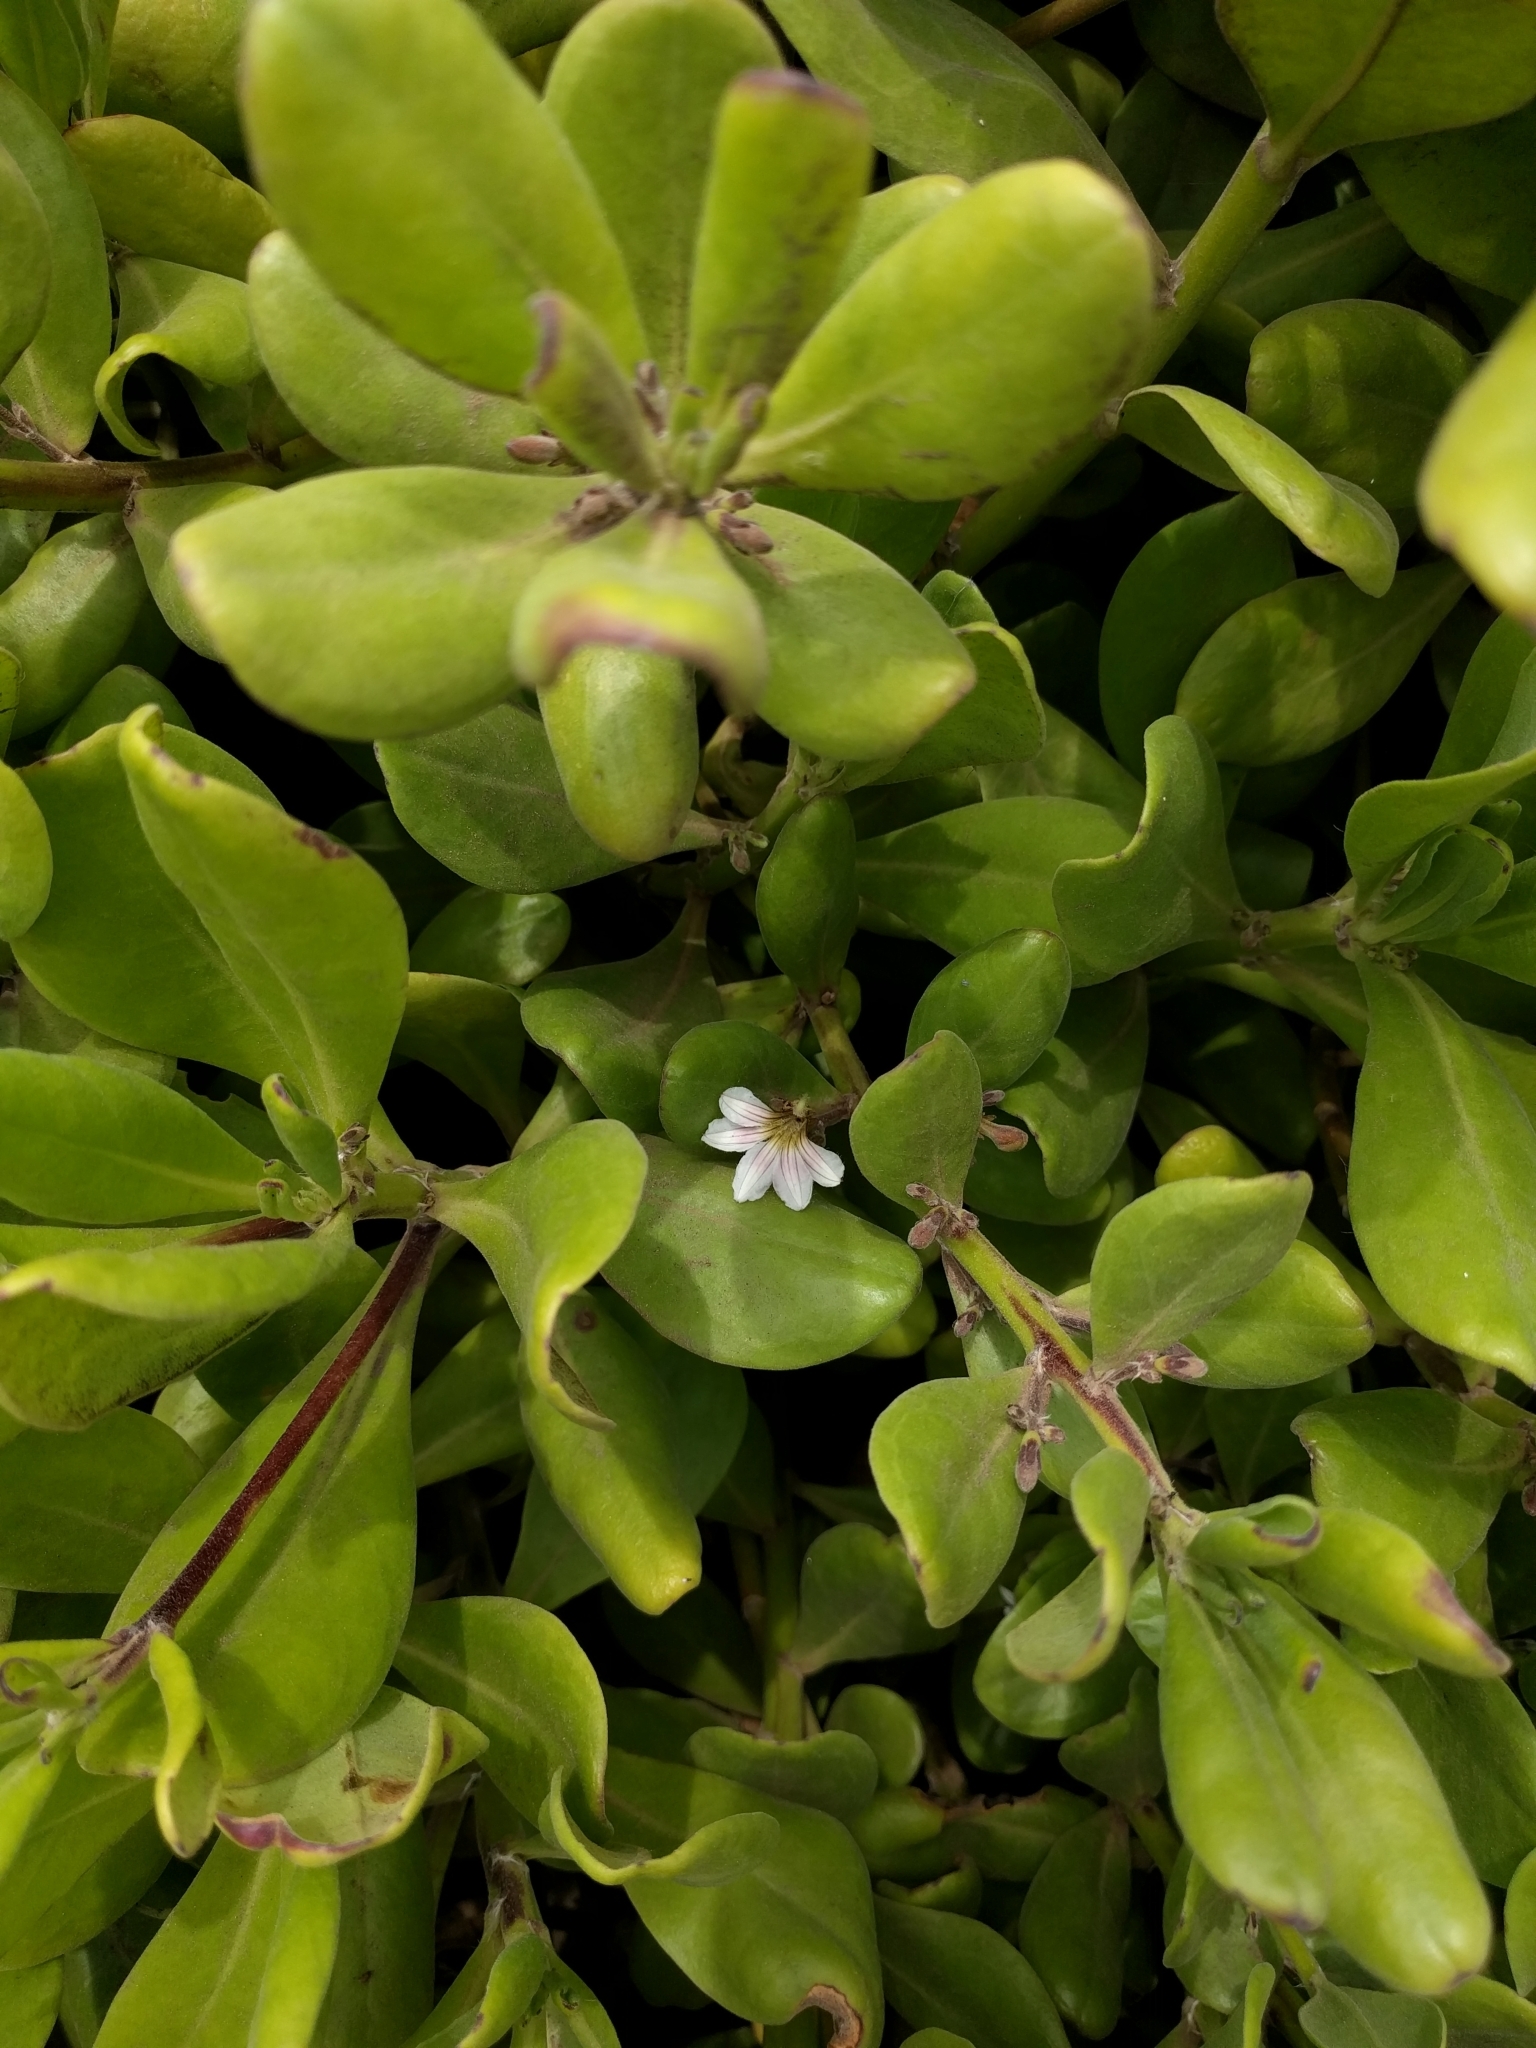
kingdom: Plantae
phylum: Tracheophyta
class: Magnoliopsida
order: Asterales
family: Goodeniaceae
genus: Scaevola
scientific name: Scaevola taccada
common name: Sea lettucetree
